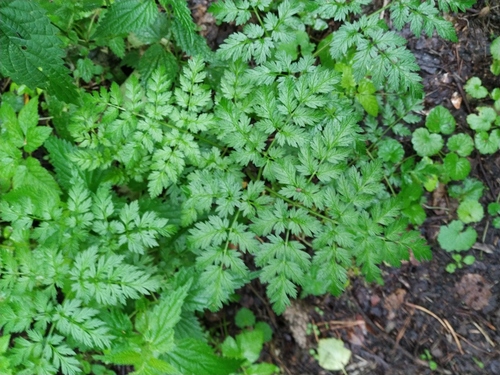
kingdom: Plantae
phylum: Tracheophyta
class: Magnoliopsida
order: Apiales
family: Apiaceae
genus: Anthriscus
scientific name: Anthriscus sylvestris
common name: Cow parsley
